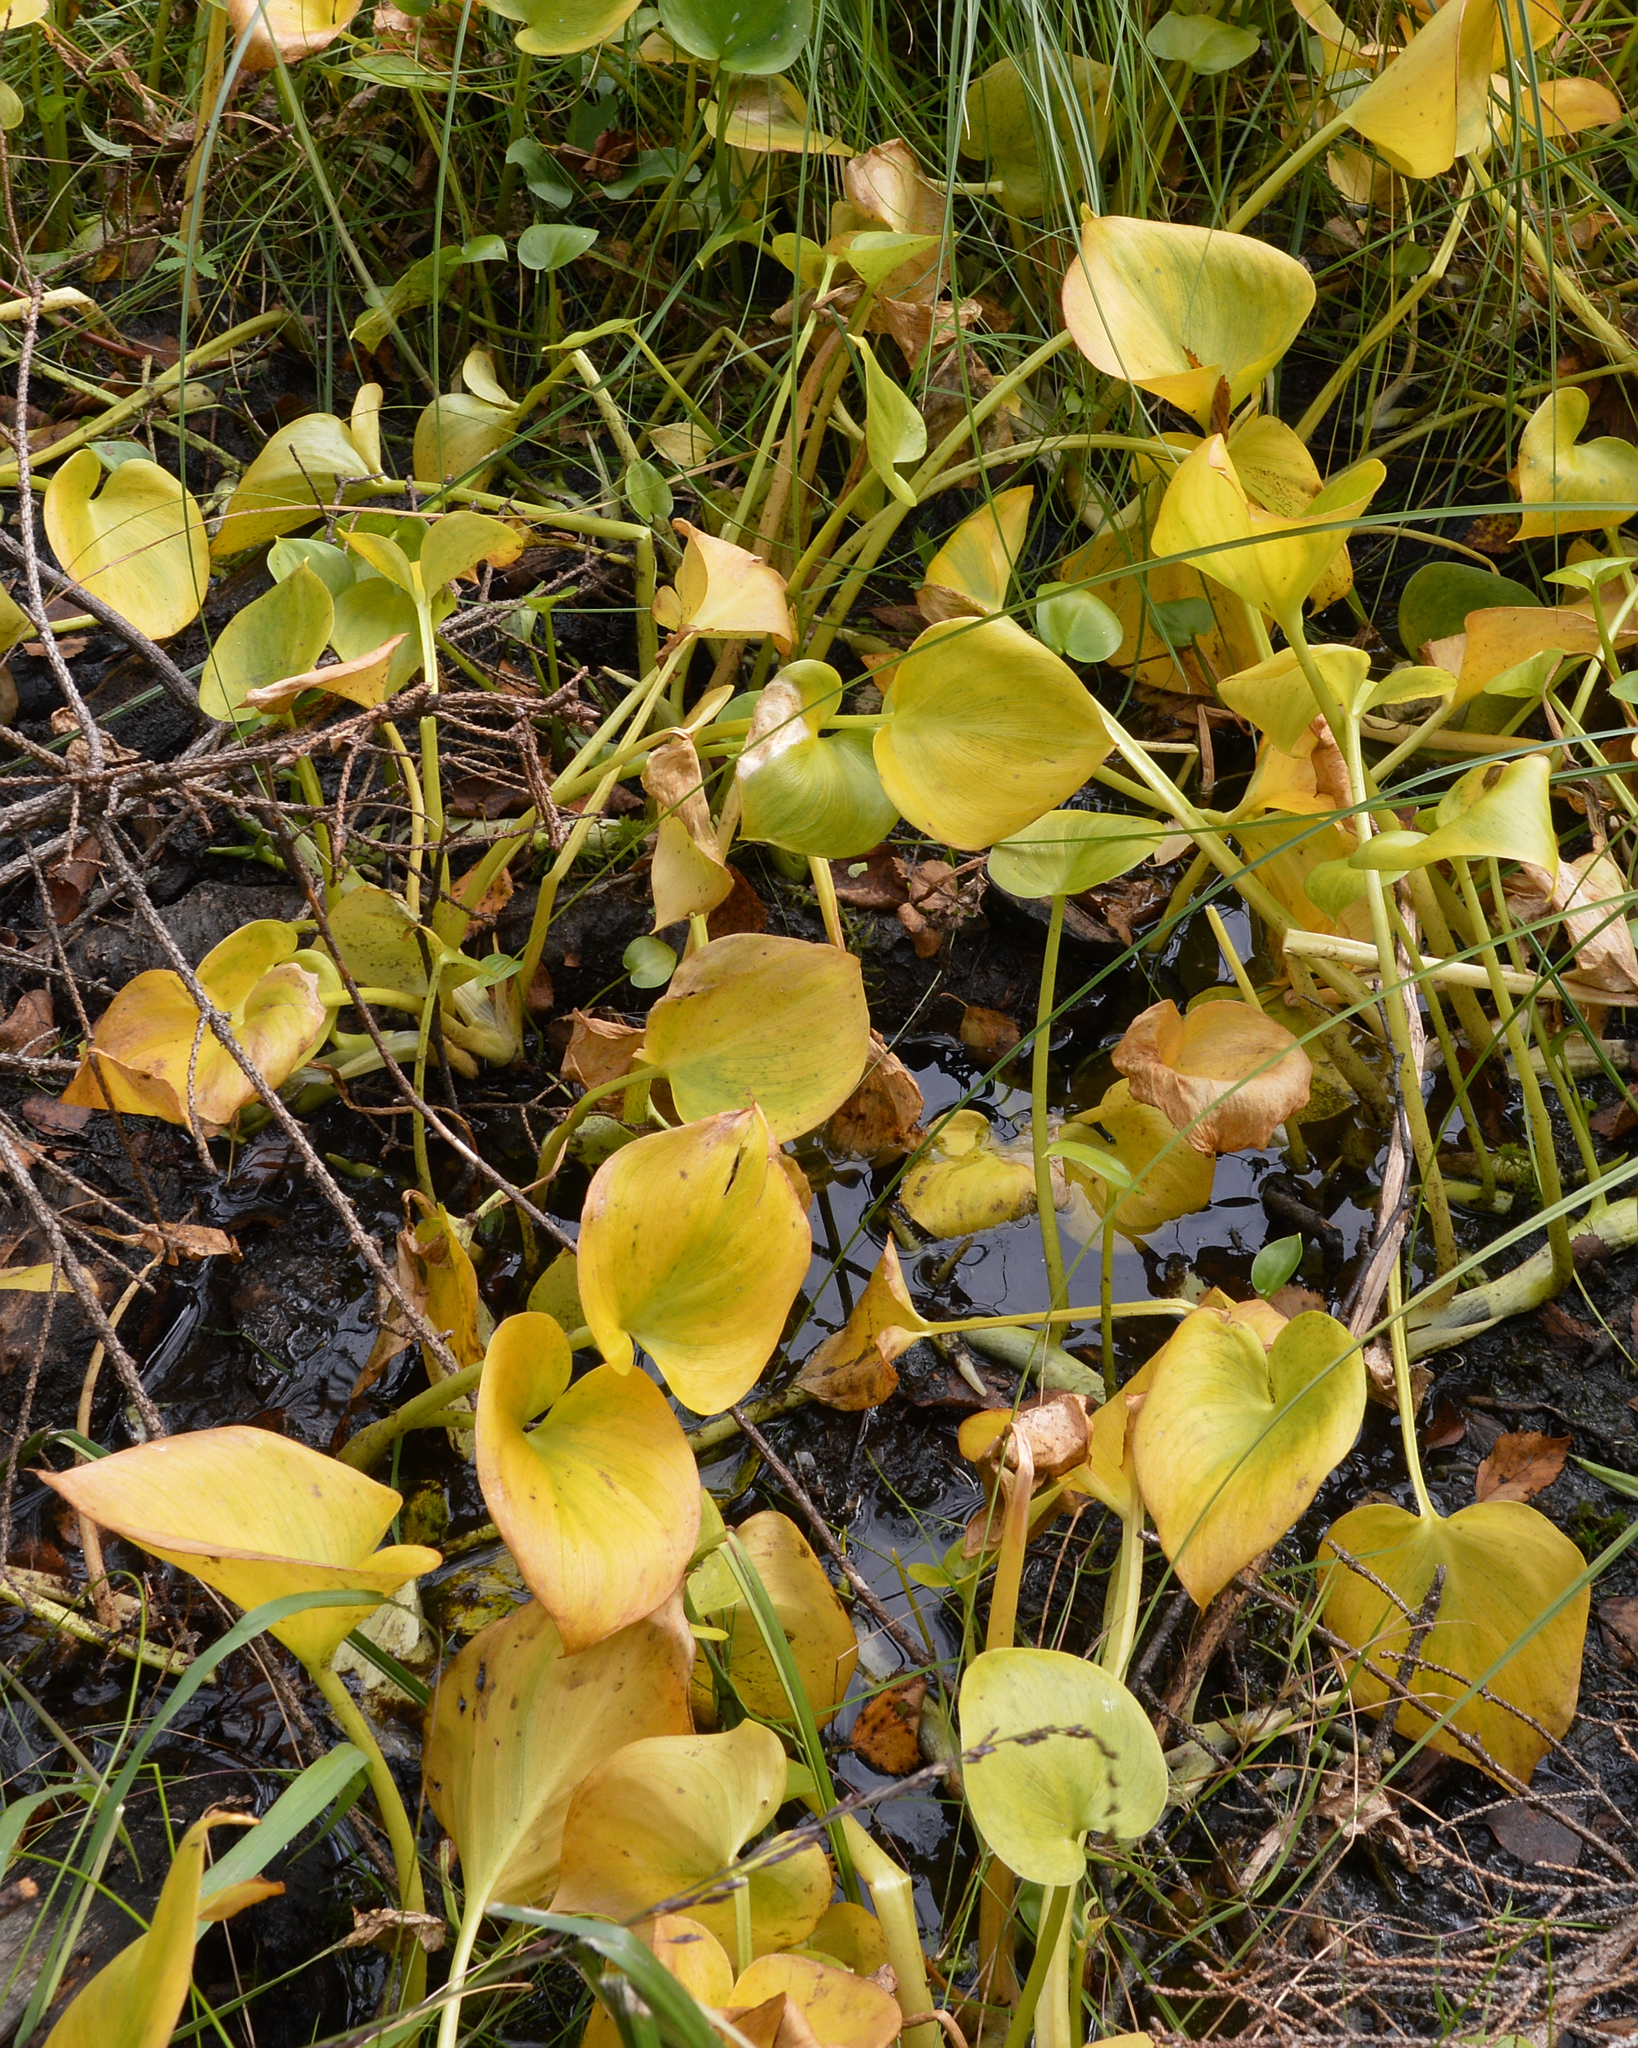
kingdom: Plantae
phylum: Tracheophyta
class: Liliopsida
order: Alismatales
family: Araceae
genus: Calla
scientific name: Calla palustris
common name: Bog arum
